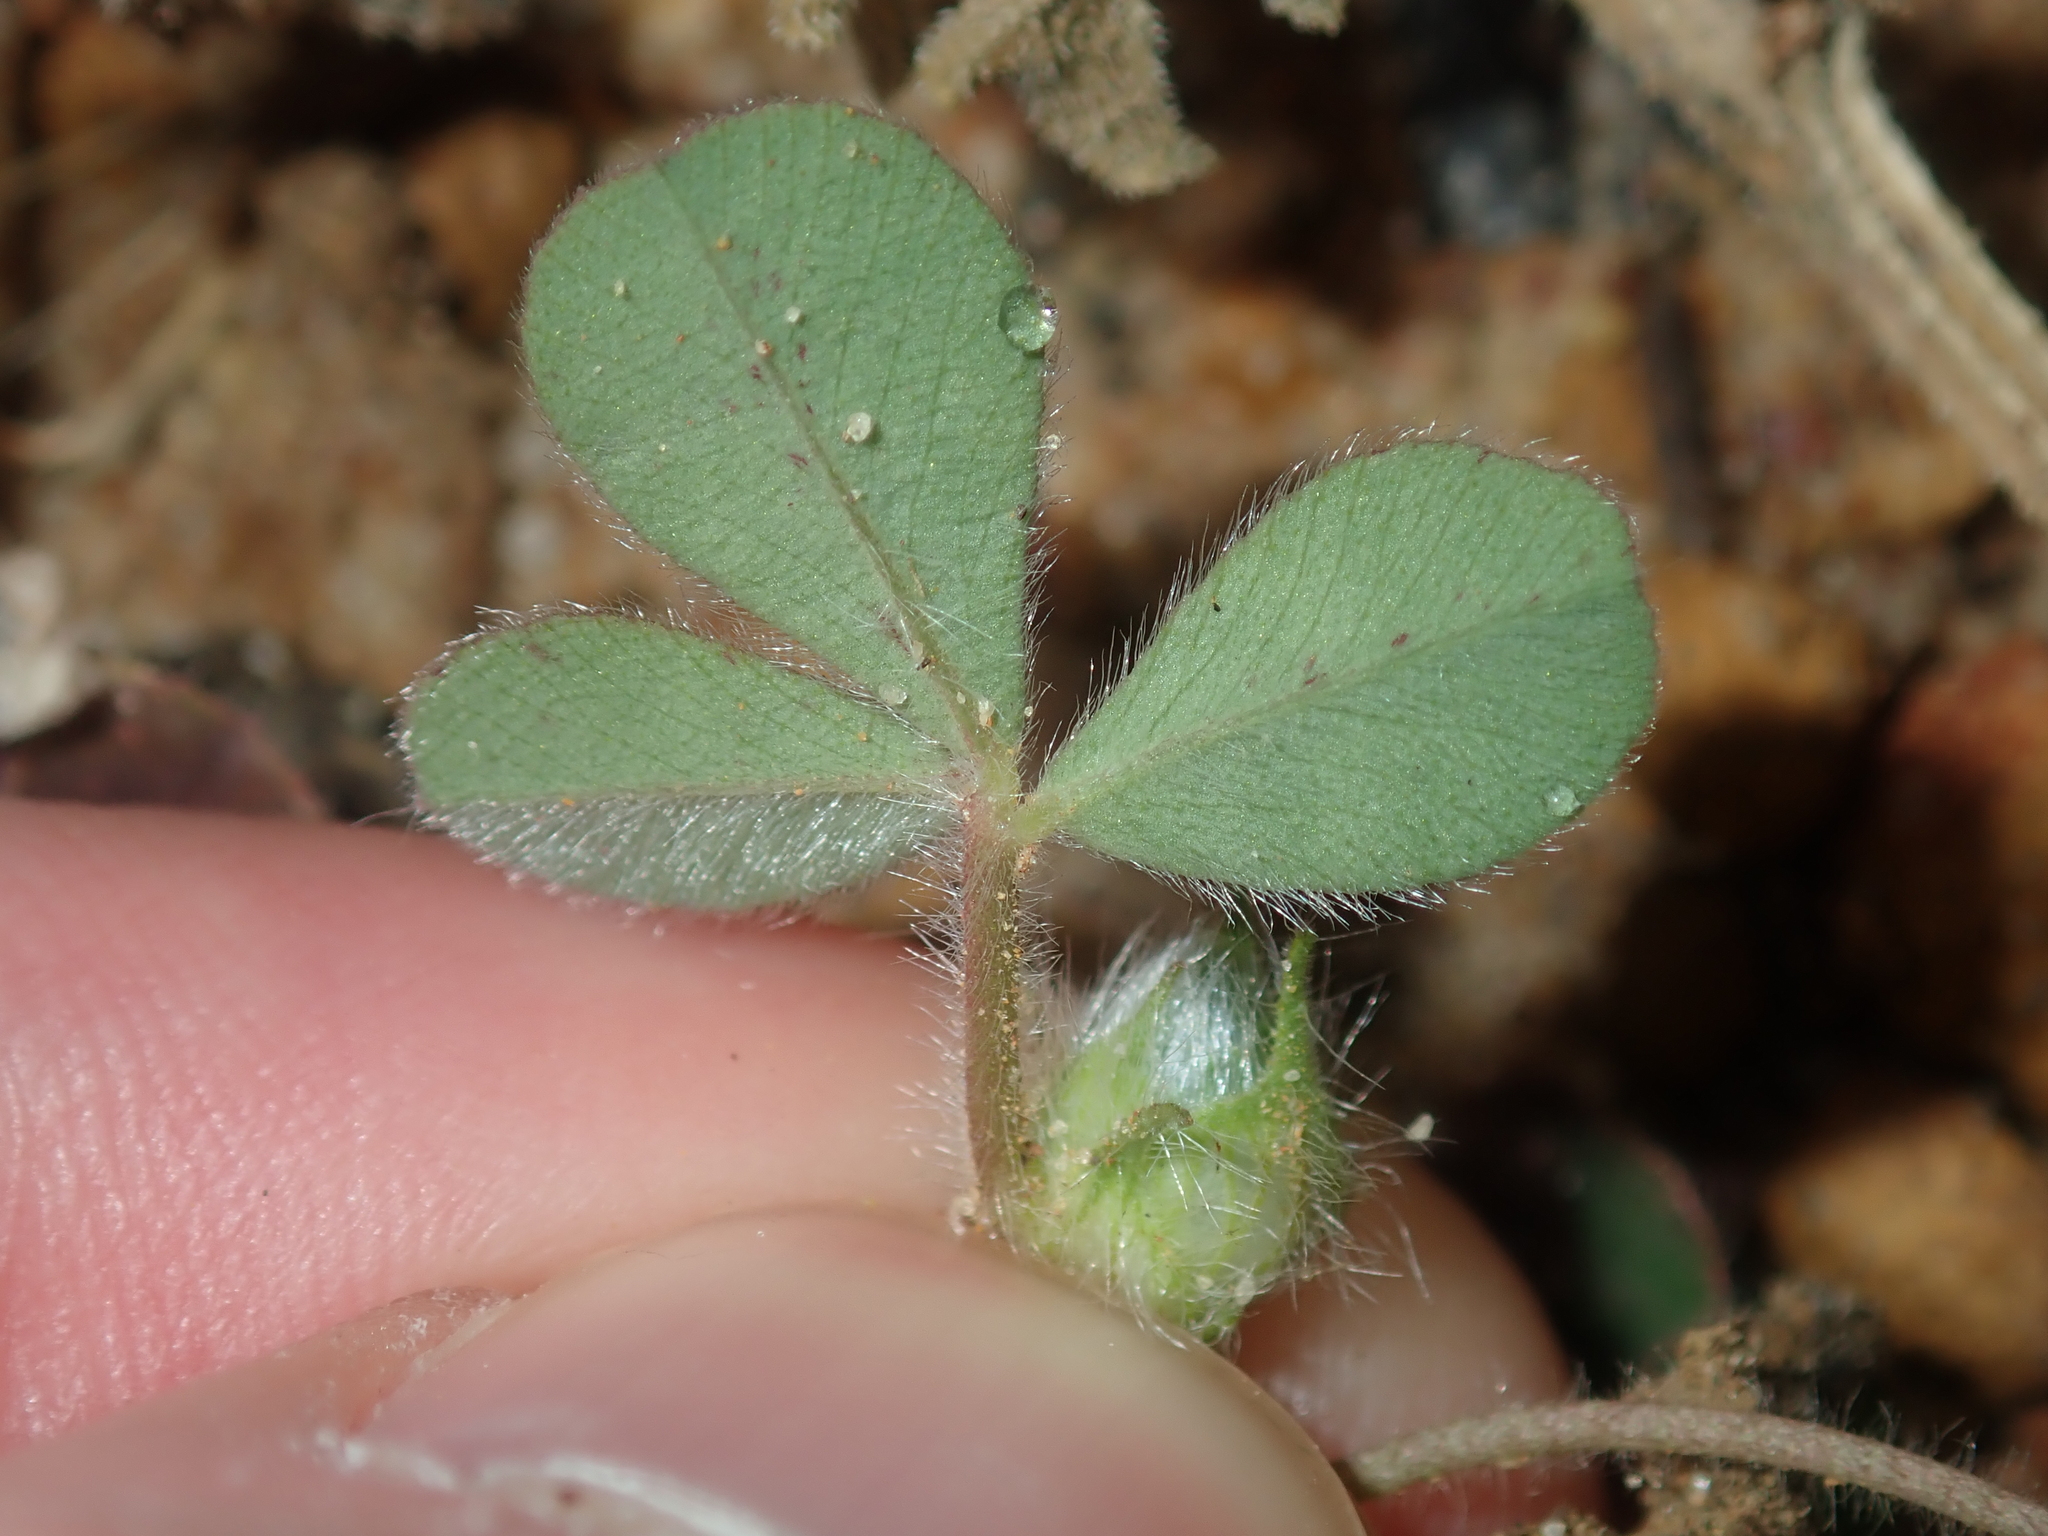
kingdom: Plantae
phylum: Tracheophyta
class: Magnoliopsida
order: Fabales
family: Fabaceae
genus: Trifolium
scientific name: Trifolium hirtum
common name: Rose clover
